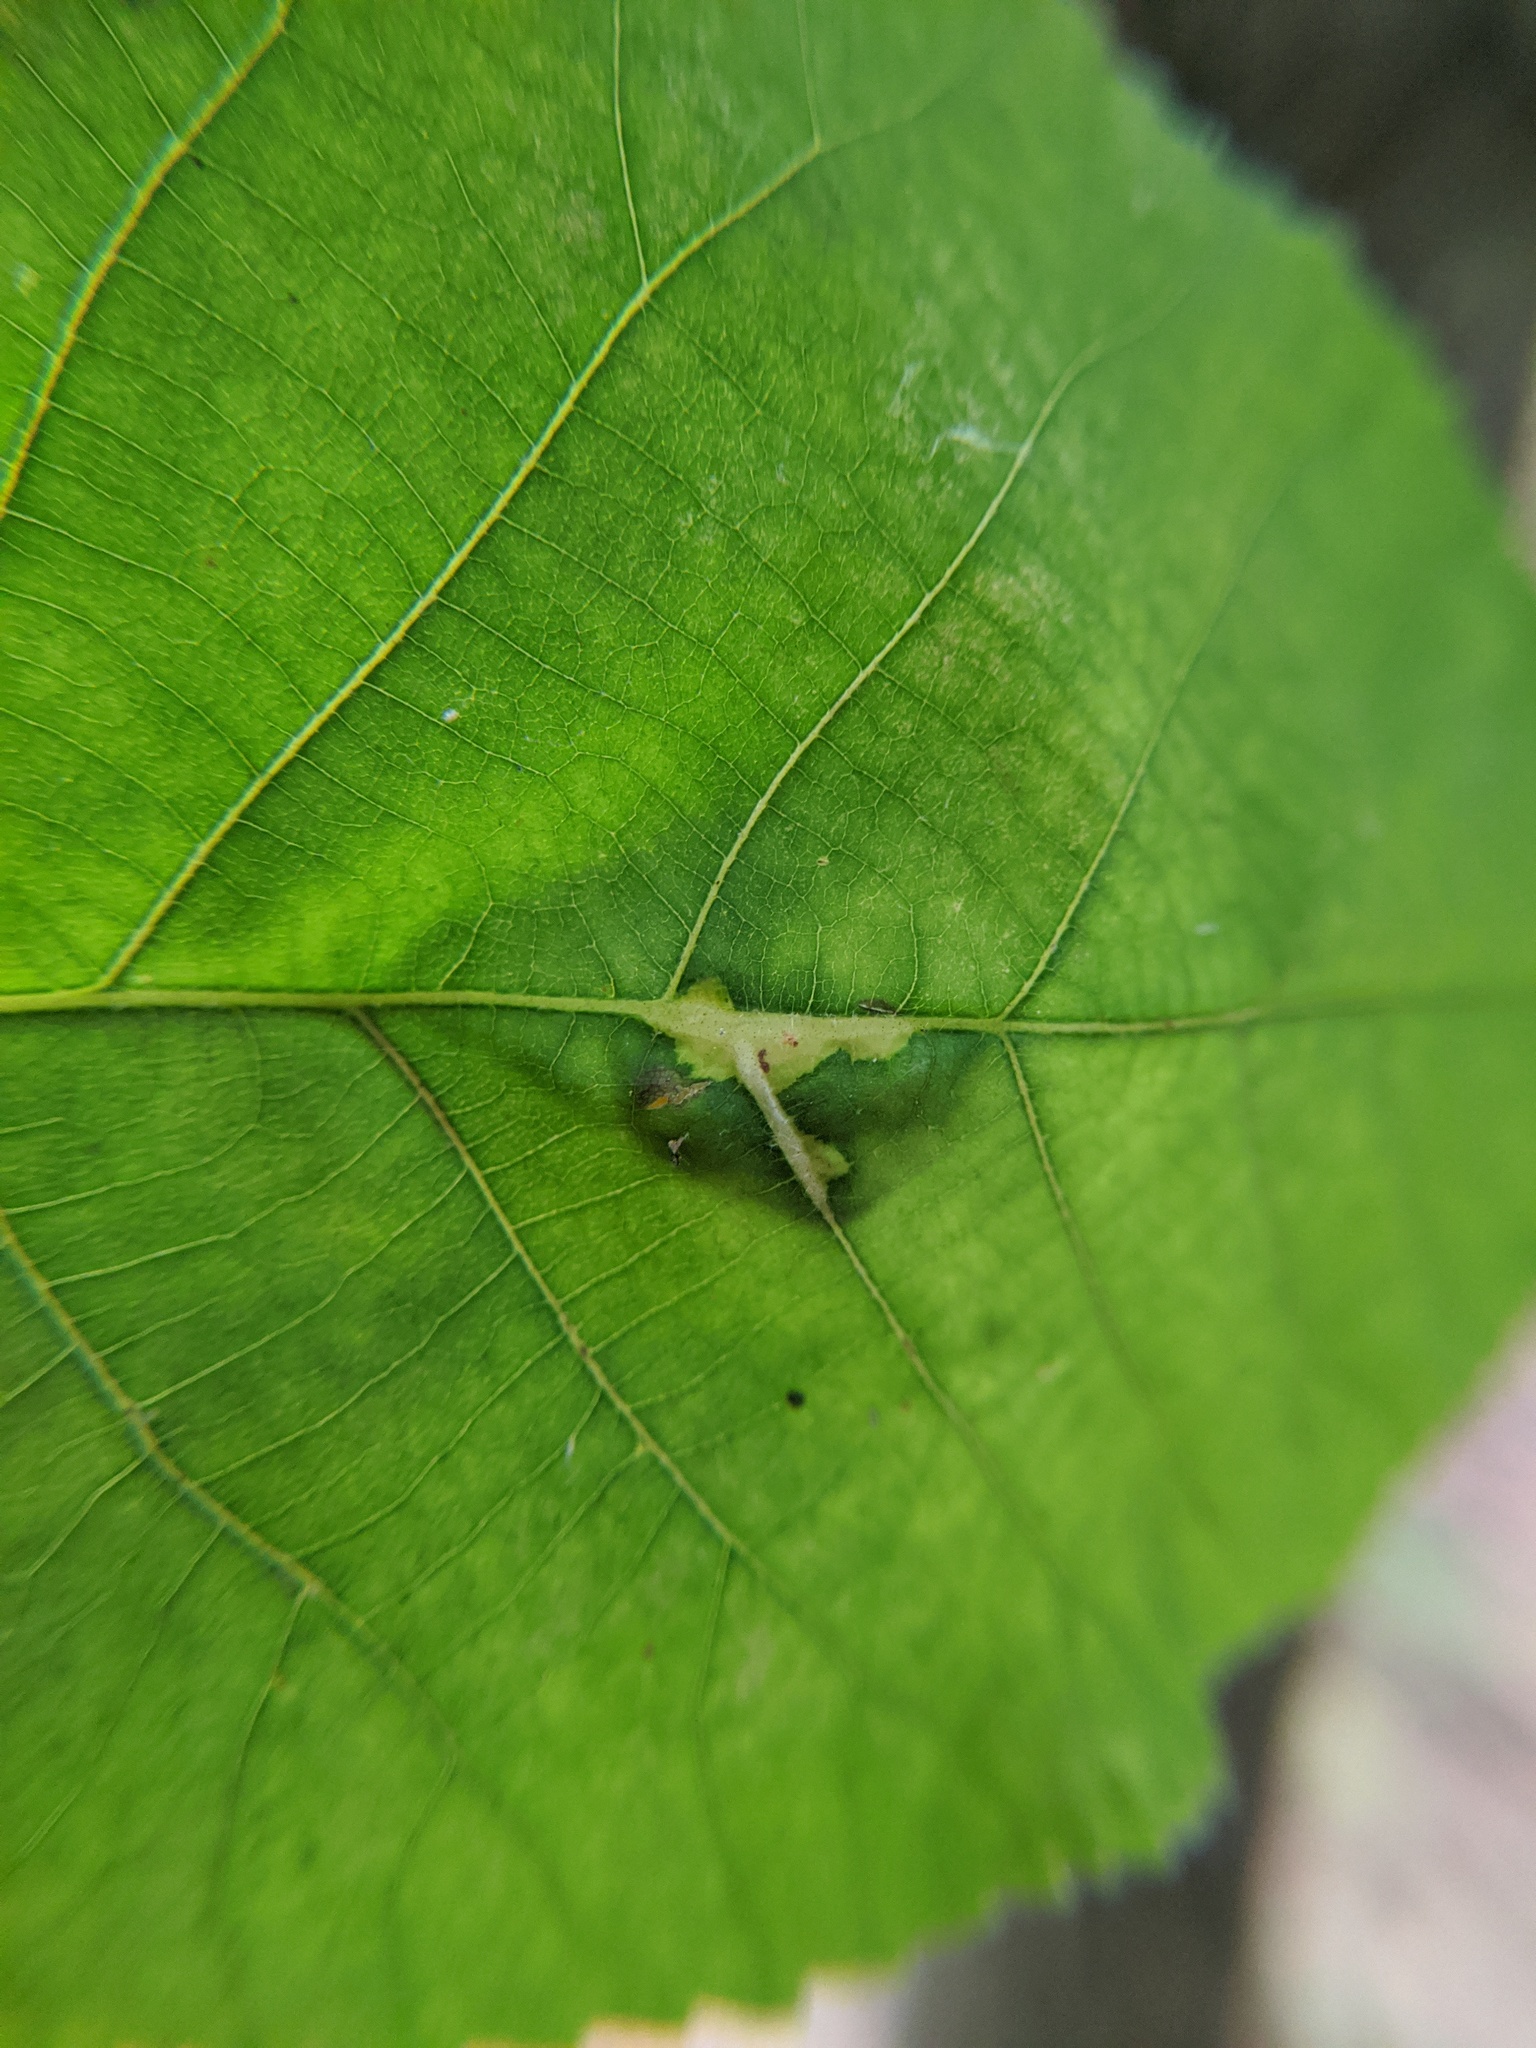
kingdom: Animalia
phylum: Arthropoda
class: Insecta
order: Diptera
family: Cecidomyiidae
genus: Caryomyia
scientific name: Caryomyia aggregata
